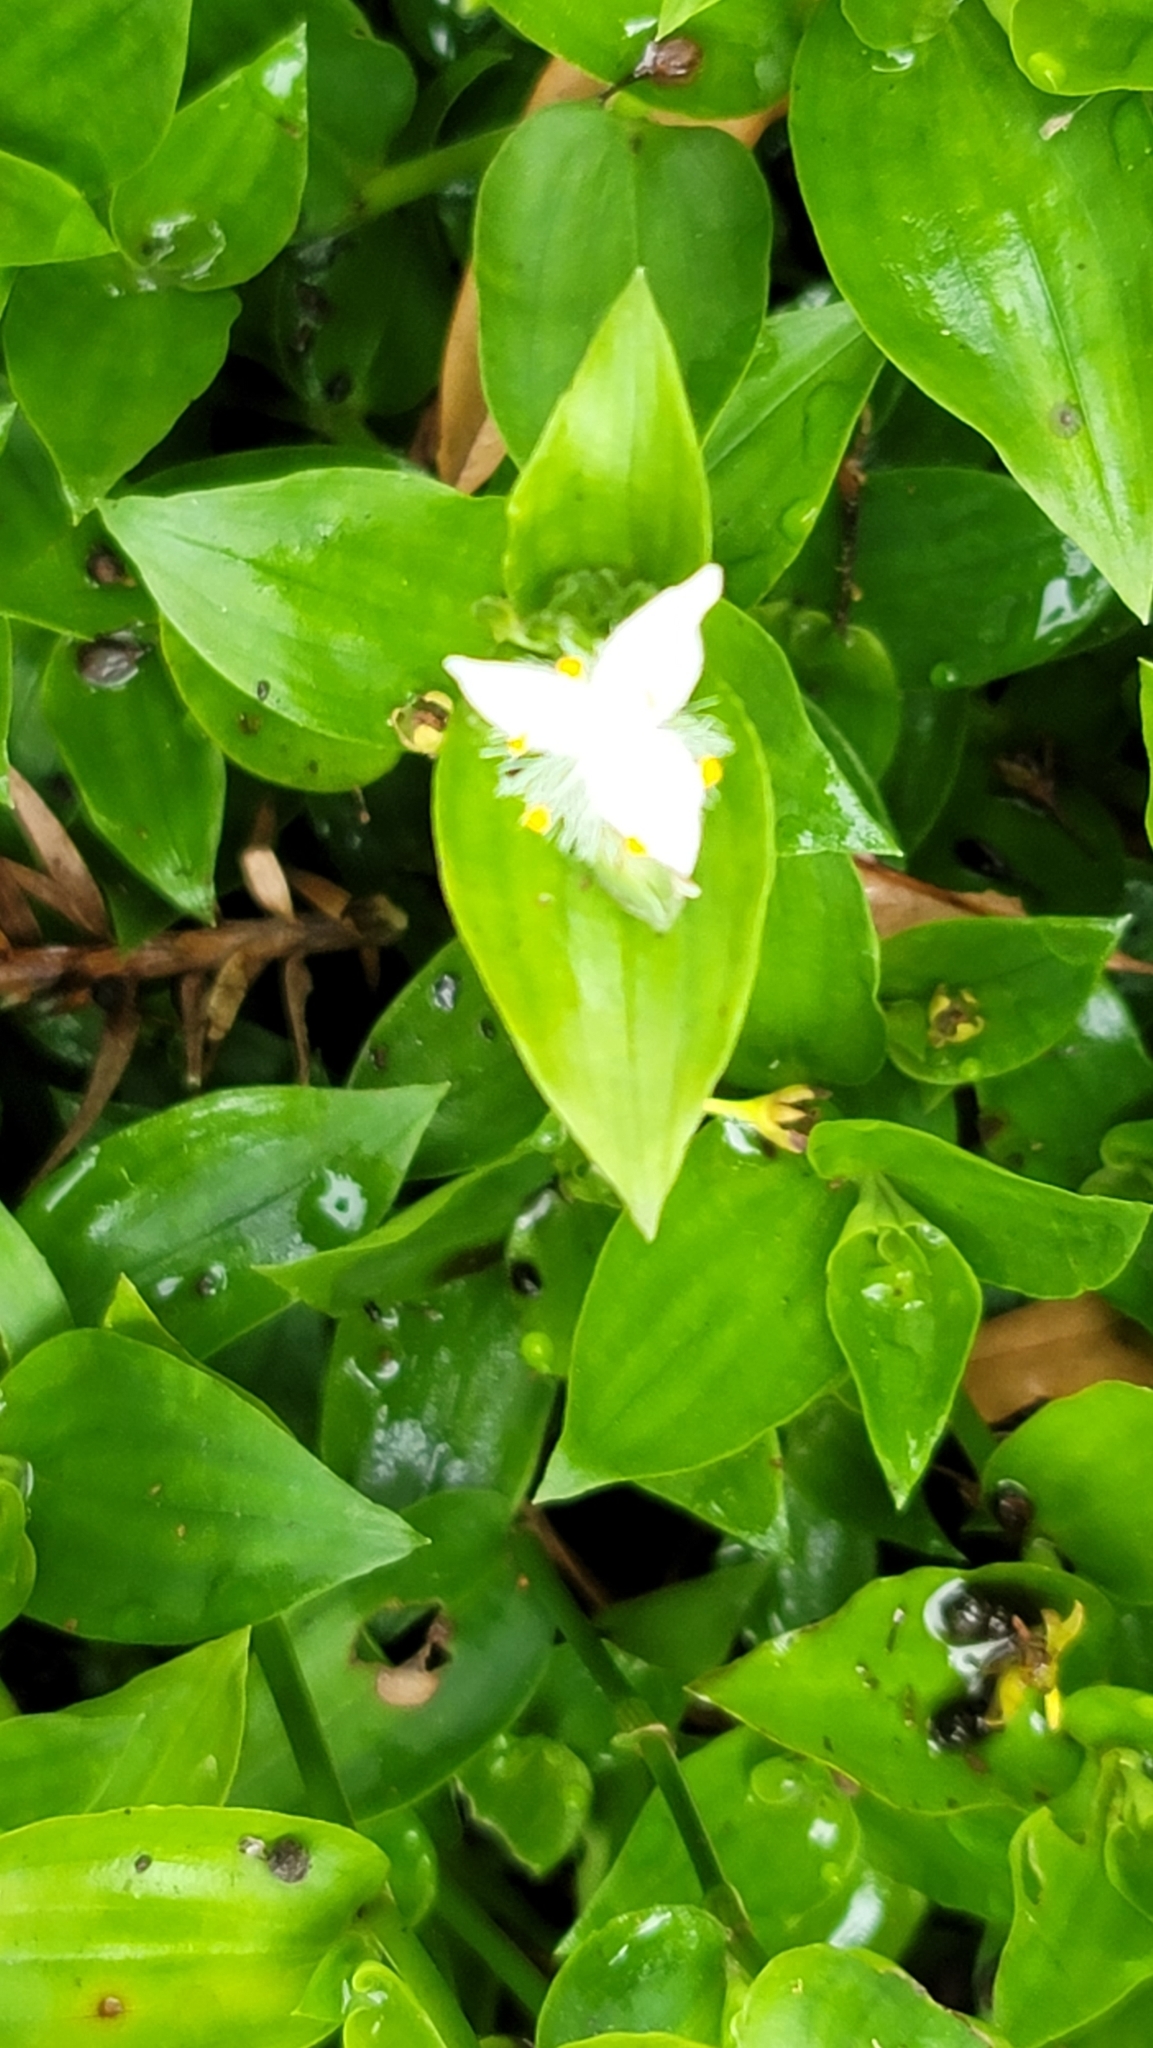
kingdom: Plantae
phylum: Tracheophyta
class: Liliopsida
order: Commelinales
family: Commelinaceae
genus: Tradescantia
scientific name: Tradescantia fluminensis
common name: Wandering-jew
